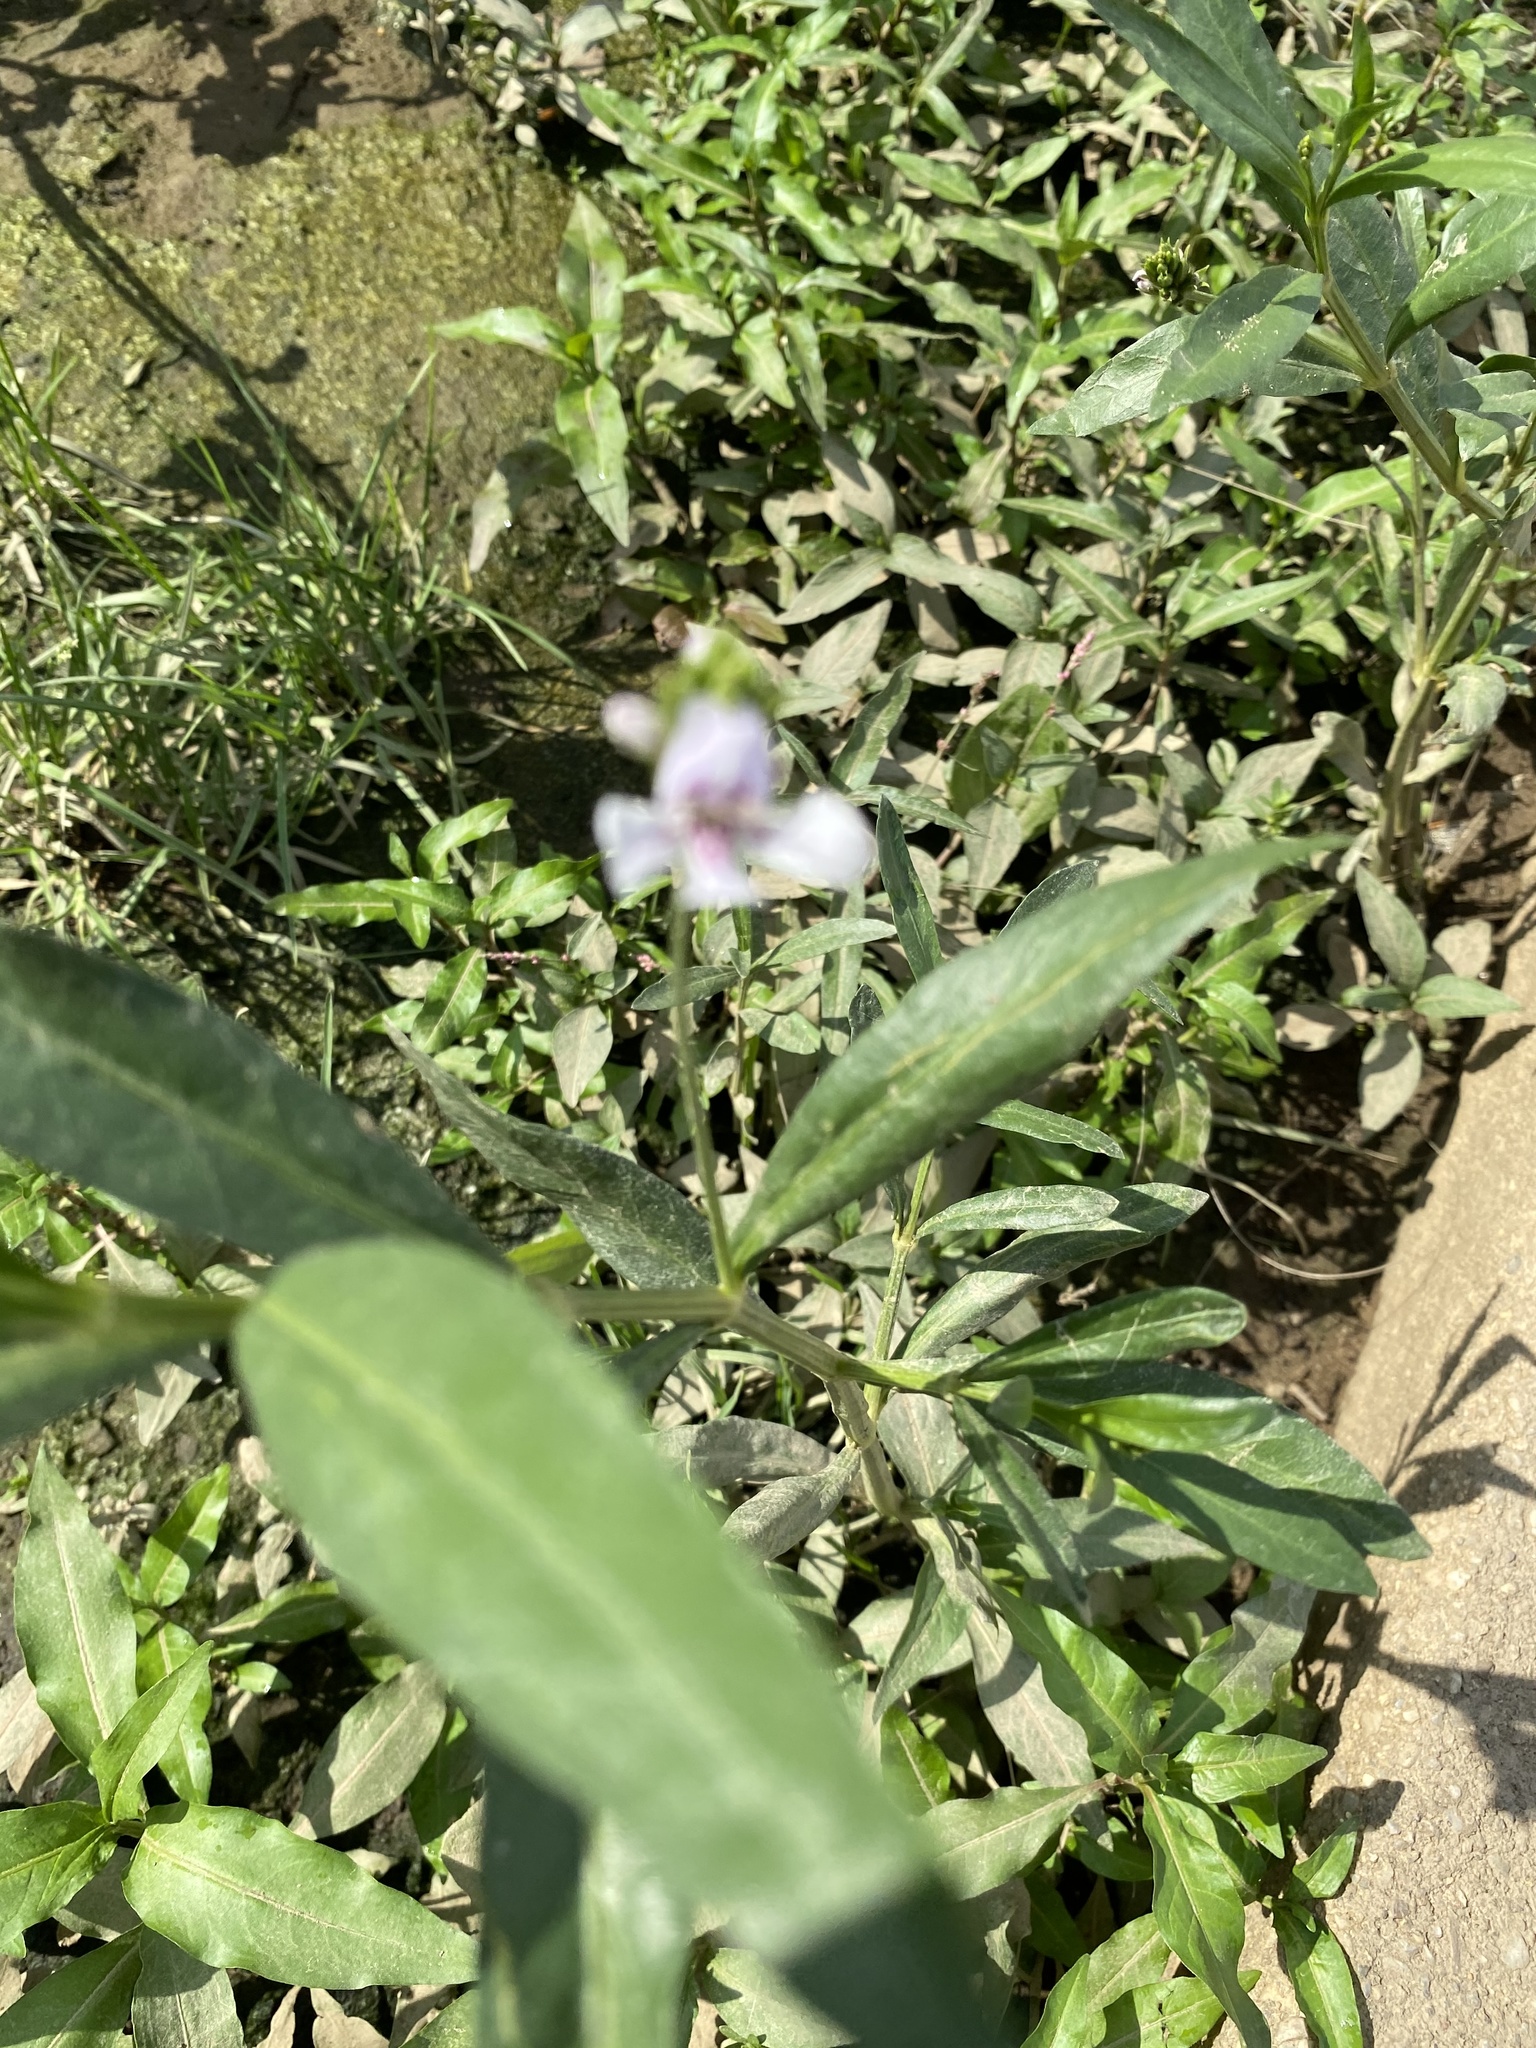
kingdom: Plantae
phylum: Tracheophyta
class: Magnoliopsida
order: Lamiales
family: Acanthaceae
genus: Dianthera
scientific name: Dianthera americana
